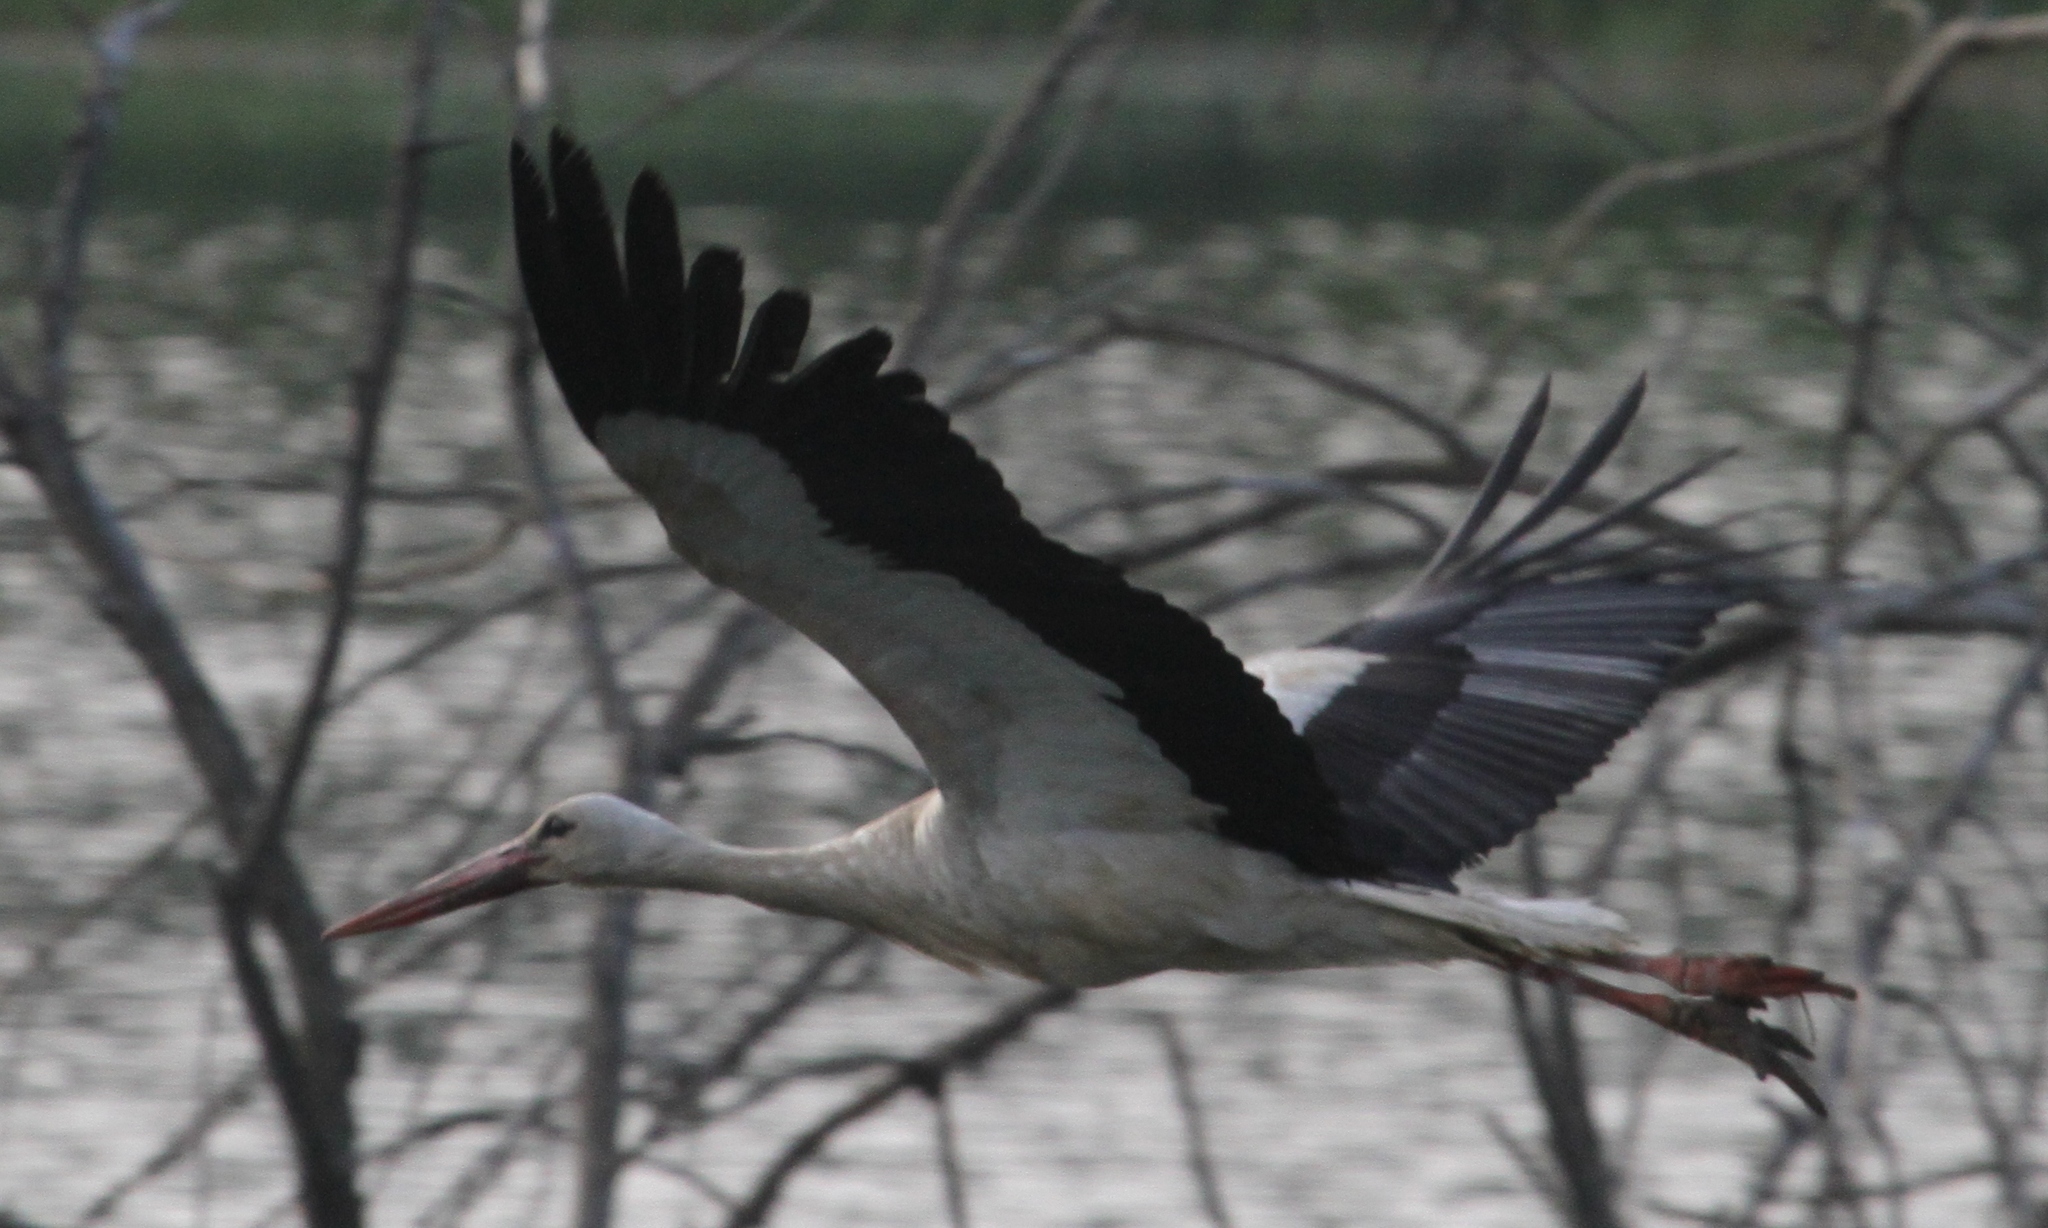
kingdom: Animalia
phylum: Chordata
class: Aves
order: Ciconiiformes
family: Ciconiidae
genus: Ciconia
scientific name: Ciconia ciconia
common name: White stork
